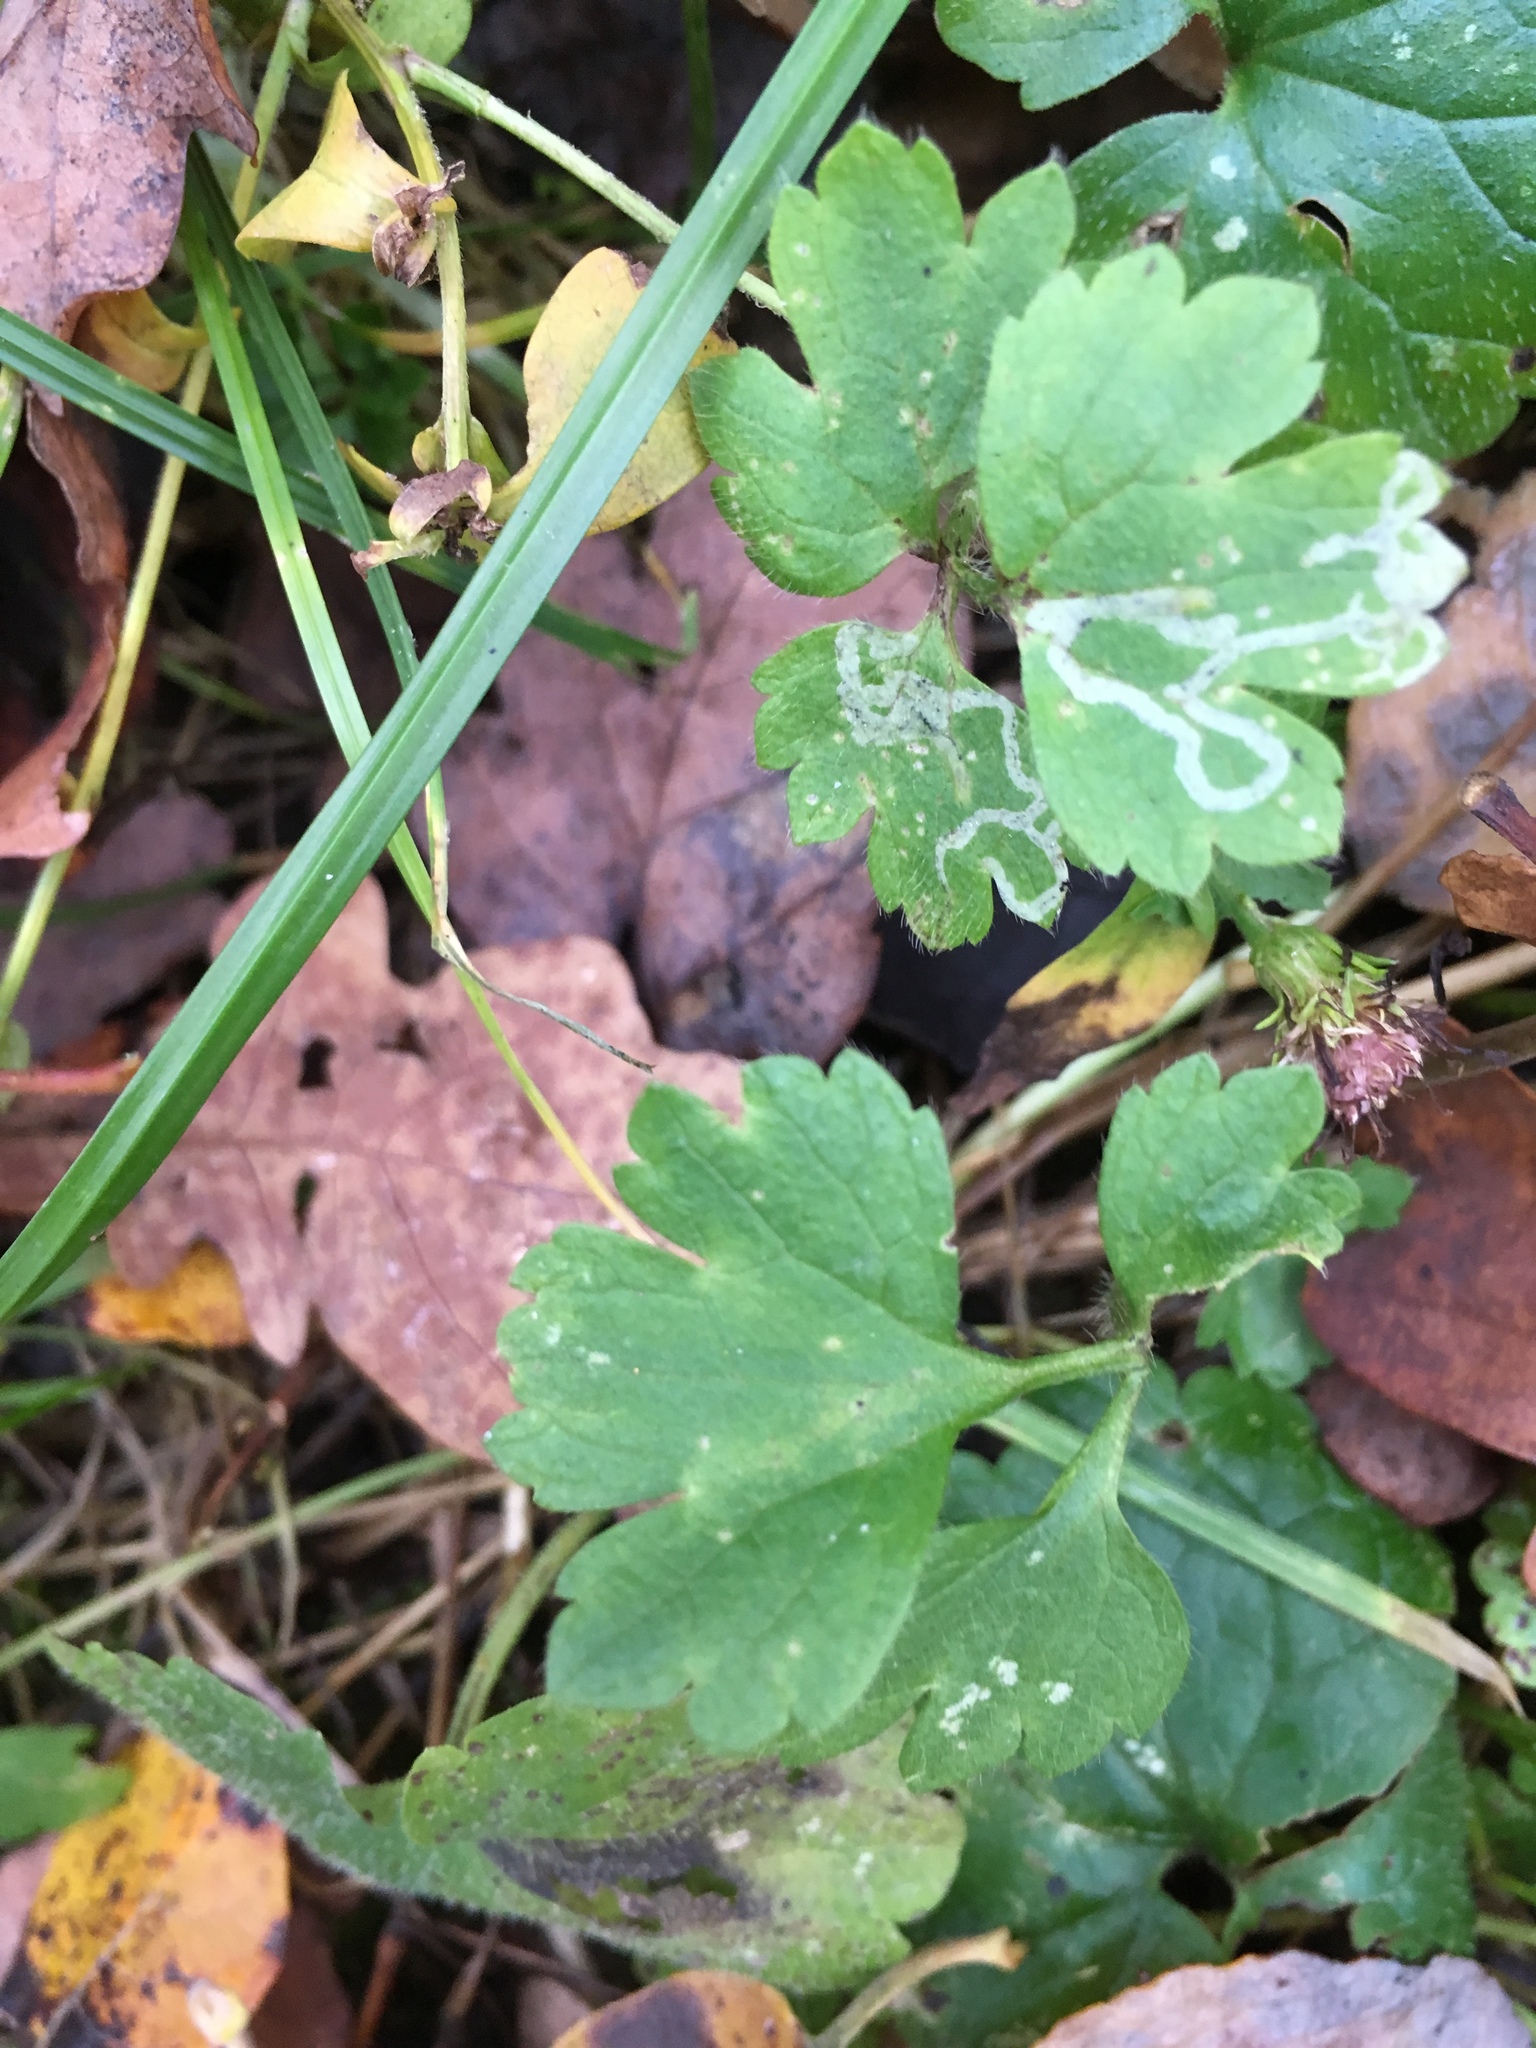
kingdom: Plantae
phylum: Tracheophyta
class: Magnoliopsida
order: Ranunculales
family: Ranunculaceae
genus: Ranunculus
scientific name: Ranunculus repens
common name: Creeping buttercup
